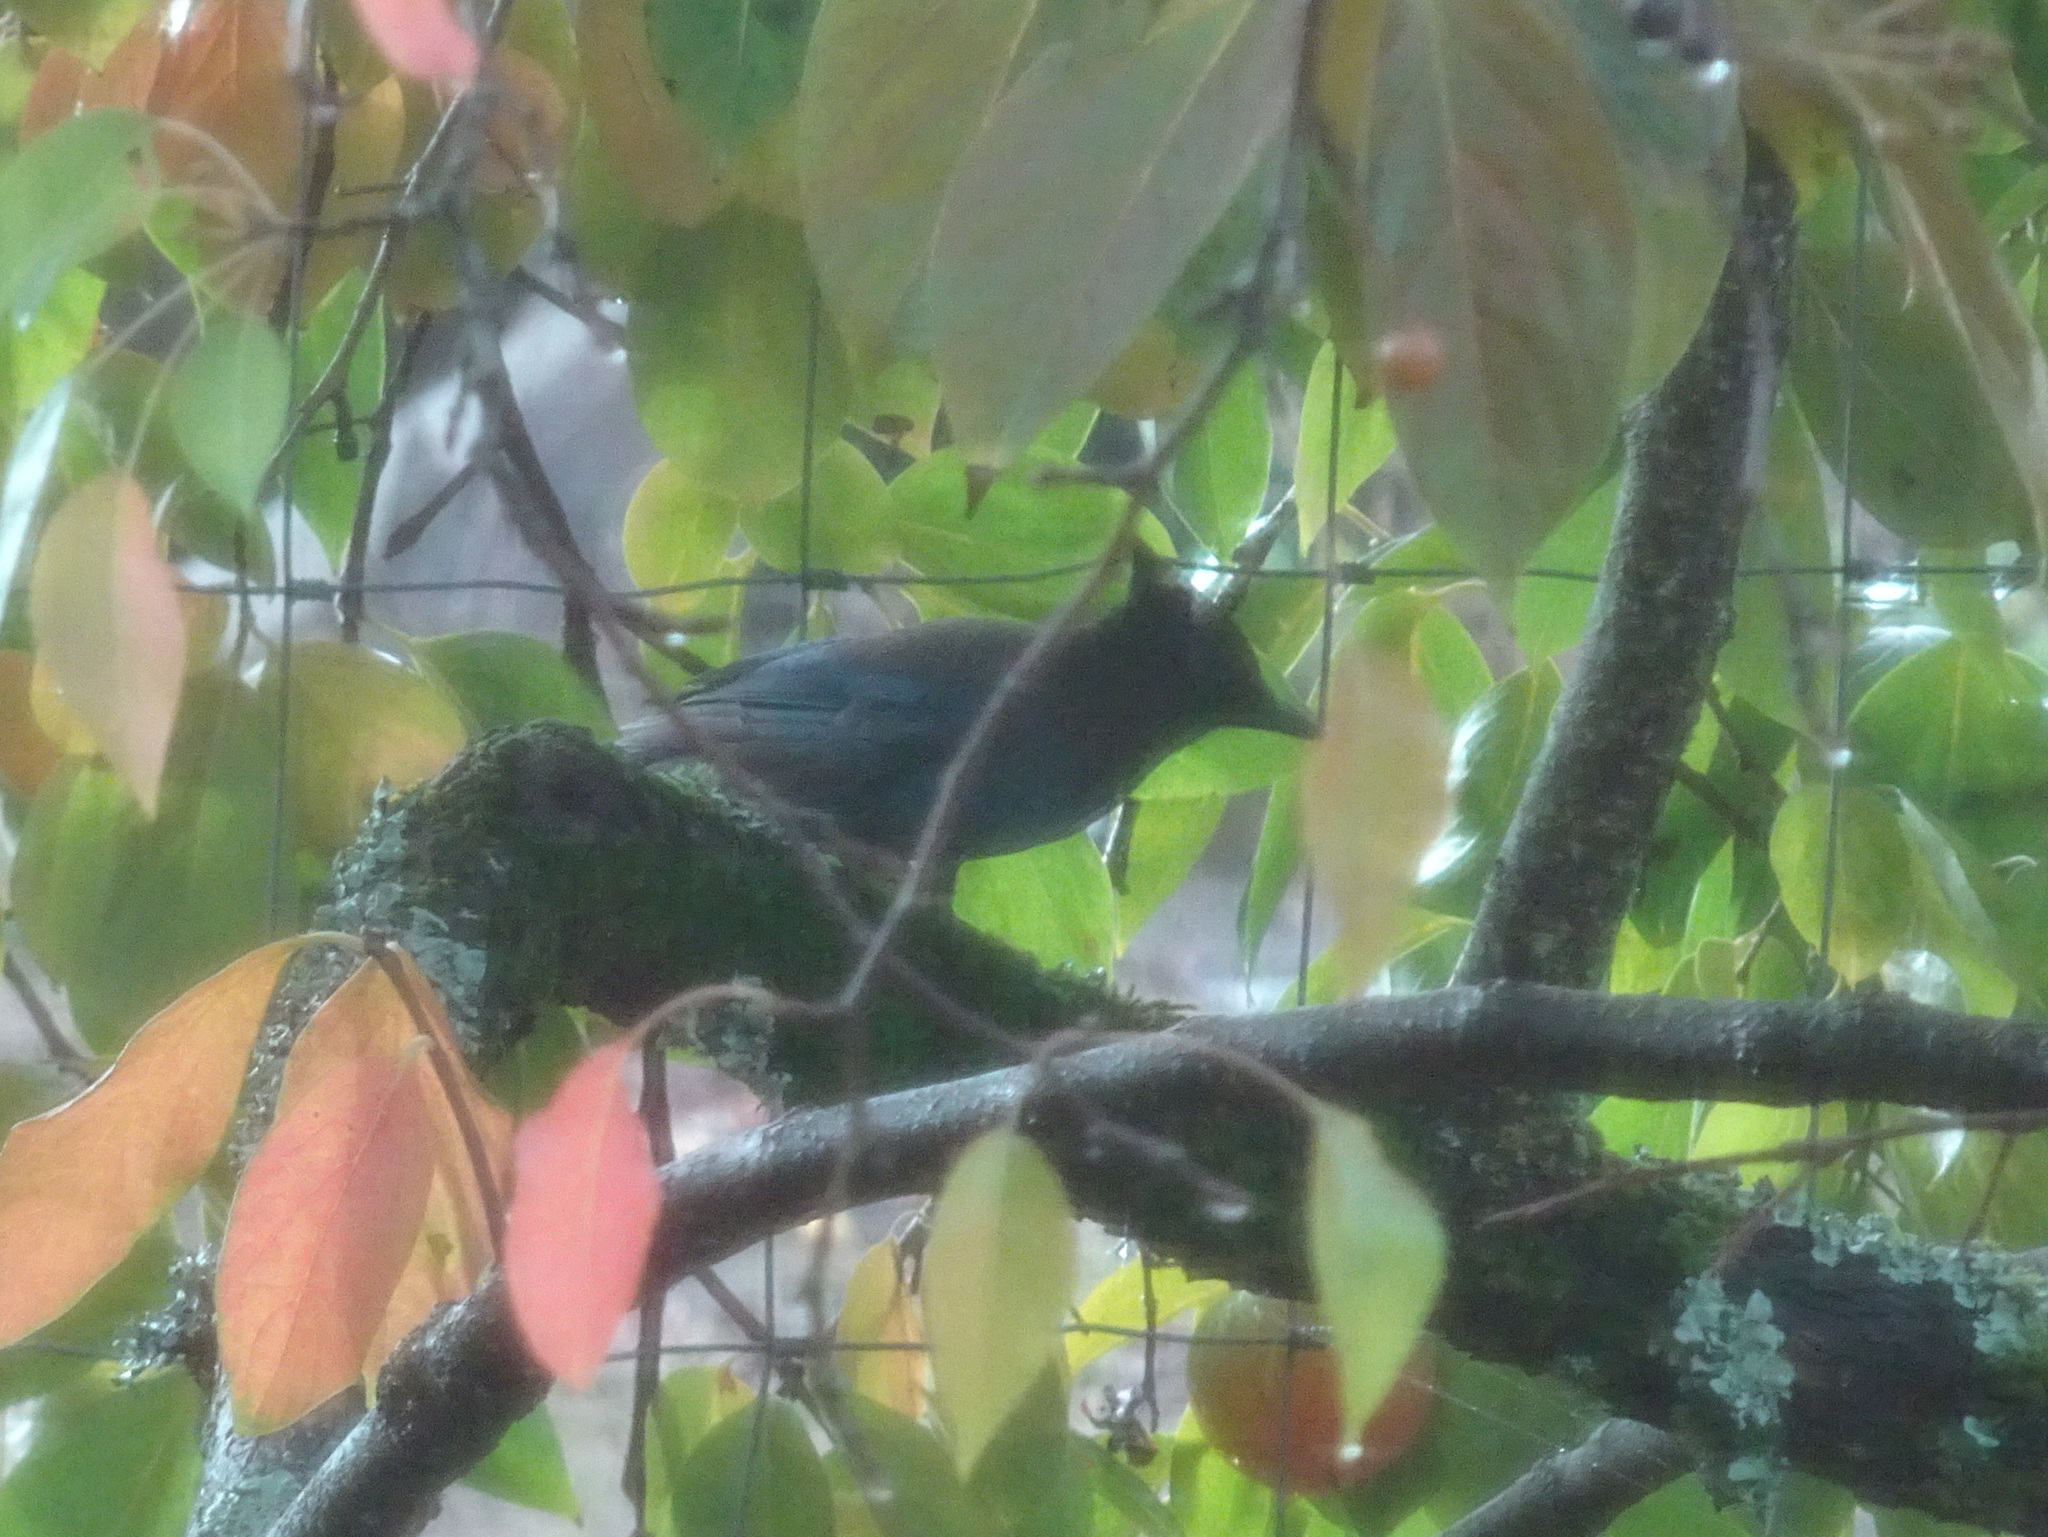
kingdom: Animalia
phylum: Chordata
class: Aves
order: Passeriformes
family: Corvidae
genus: Cyanocitta
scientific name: Cyanocitta stelleri
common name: Steller's jay
